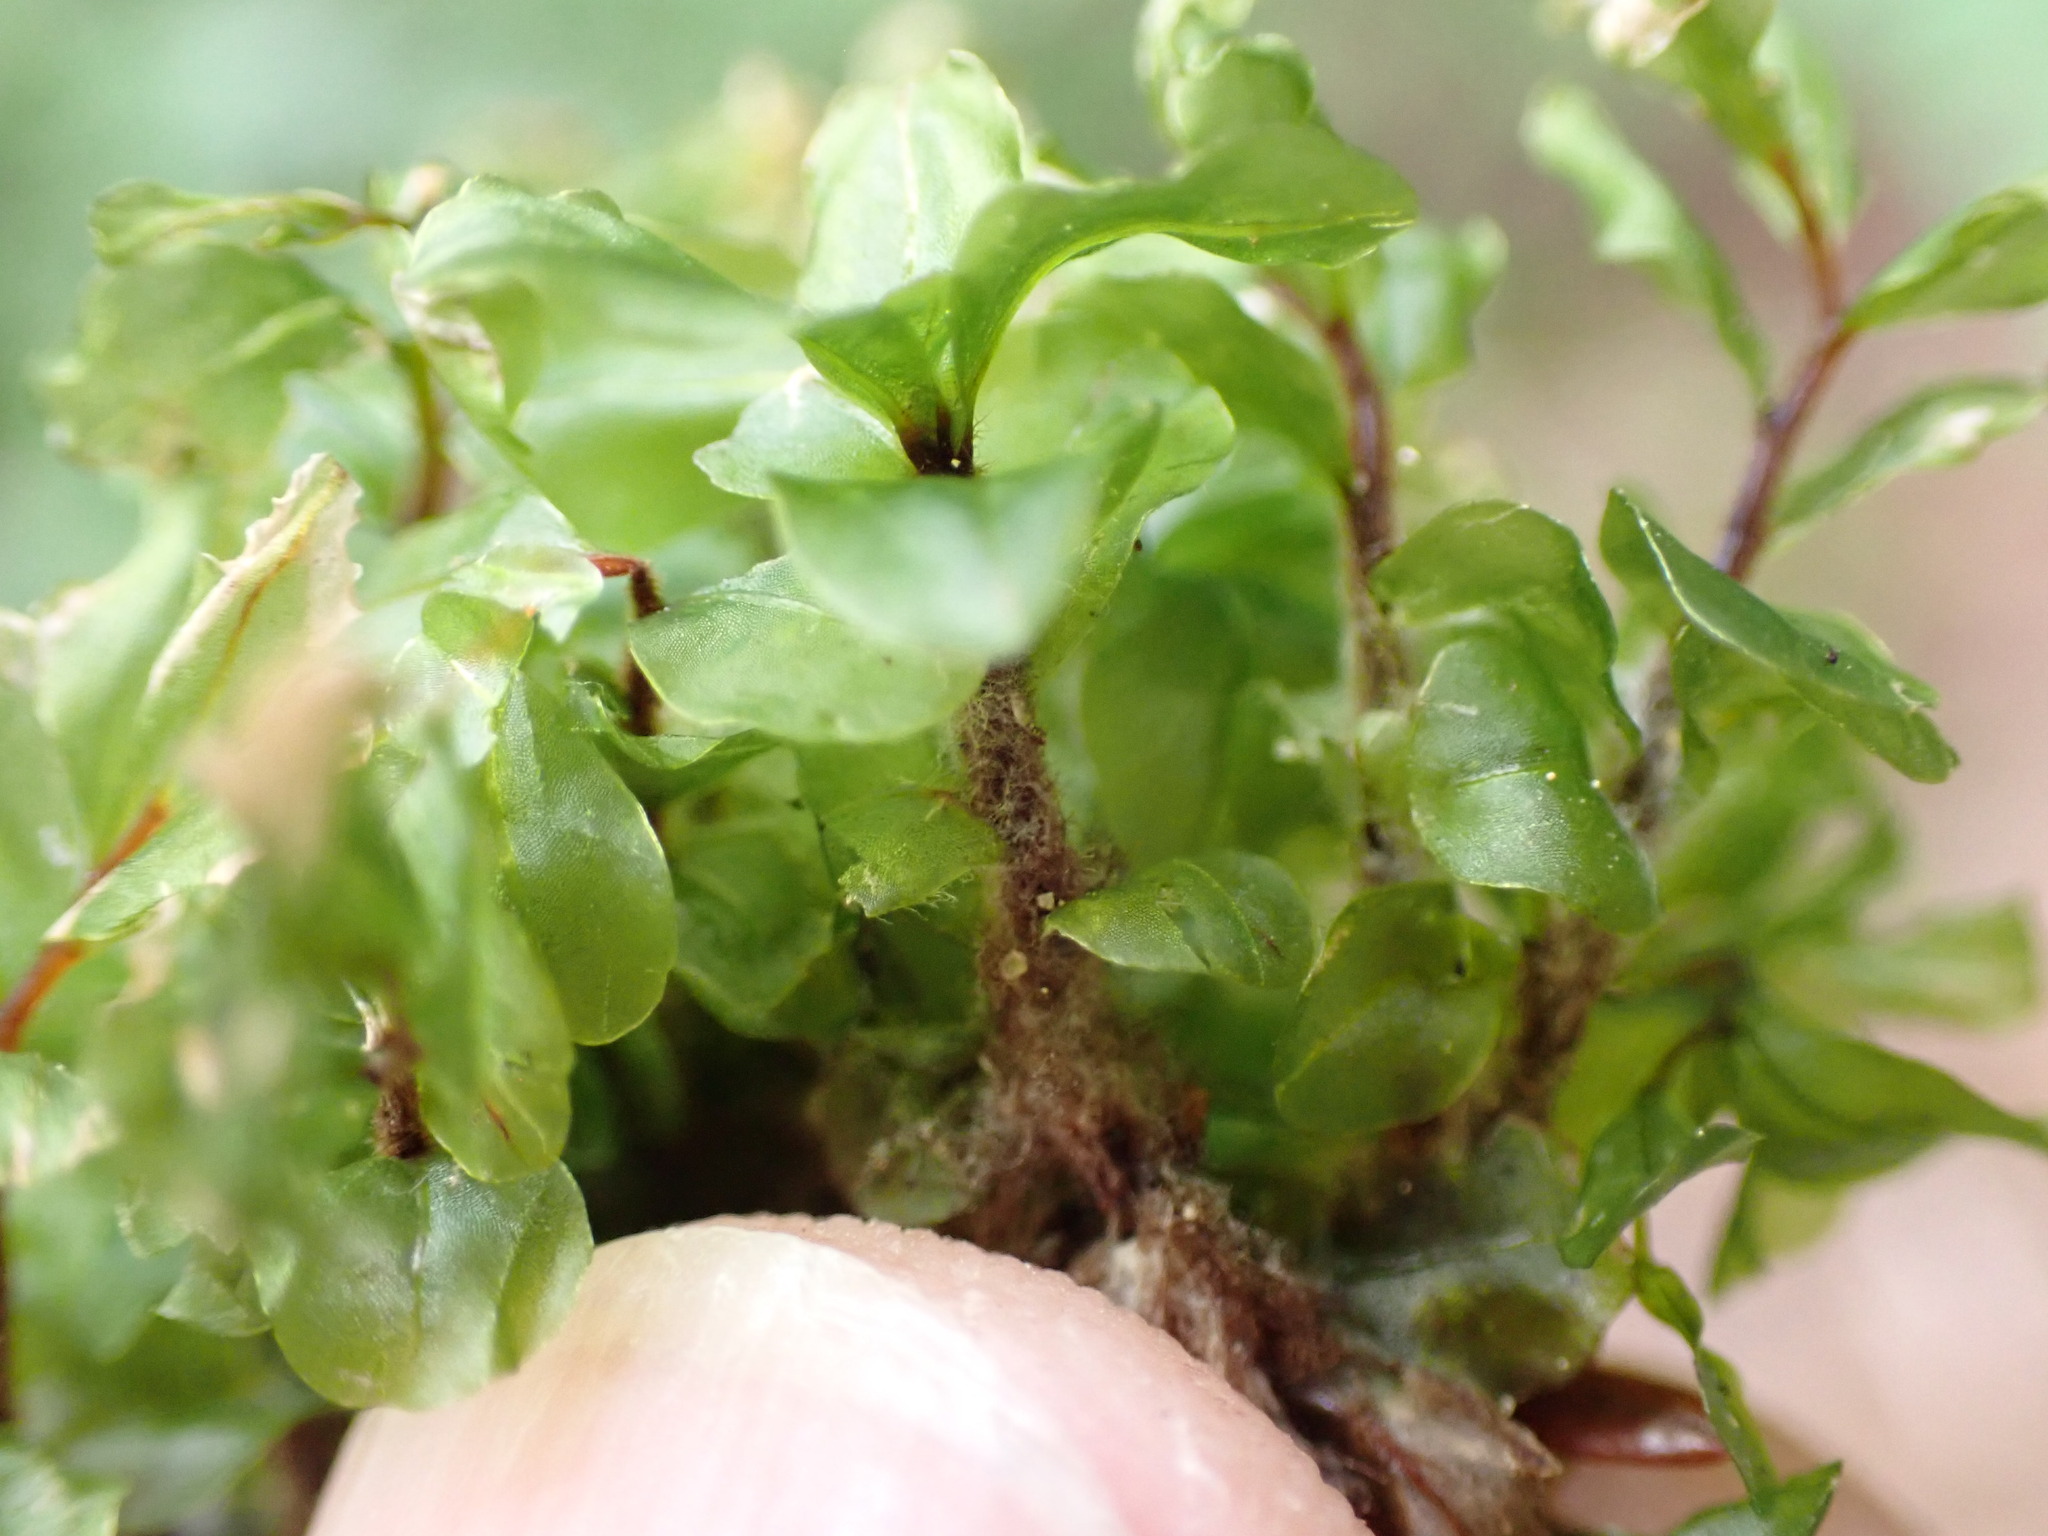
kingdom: Plantae
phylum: Bryophyta
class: Bryopsida
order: Bryales
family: Mniaceae
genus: Rhizomnium
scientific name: Rhizomnium magnifolium
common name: Large-leaved leafy moss
